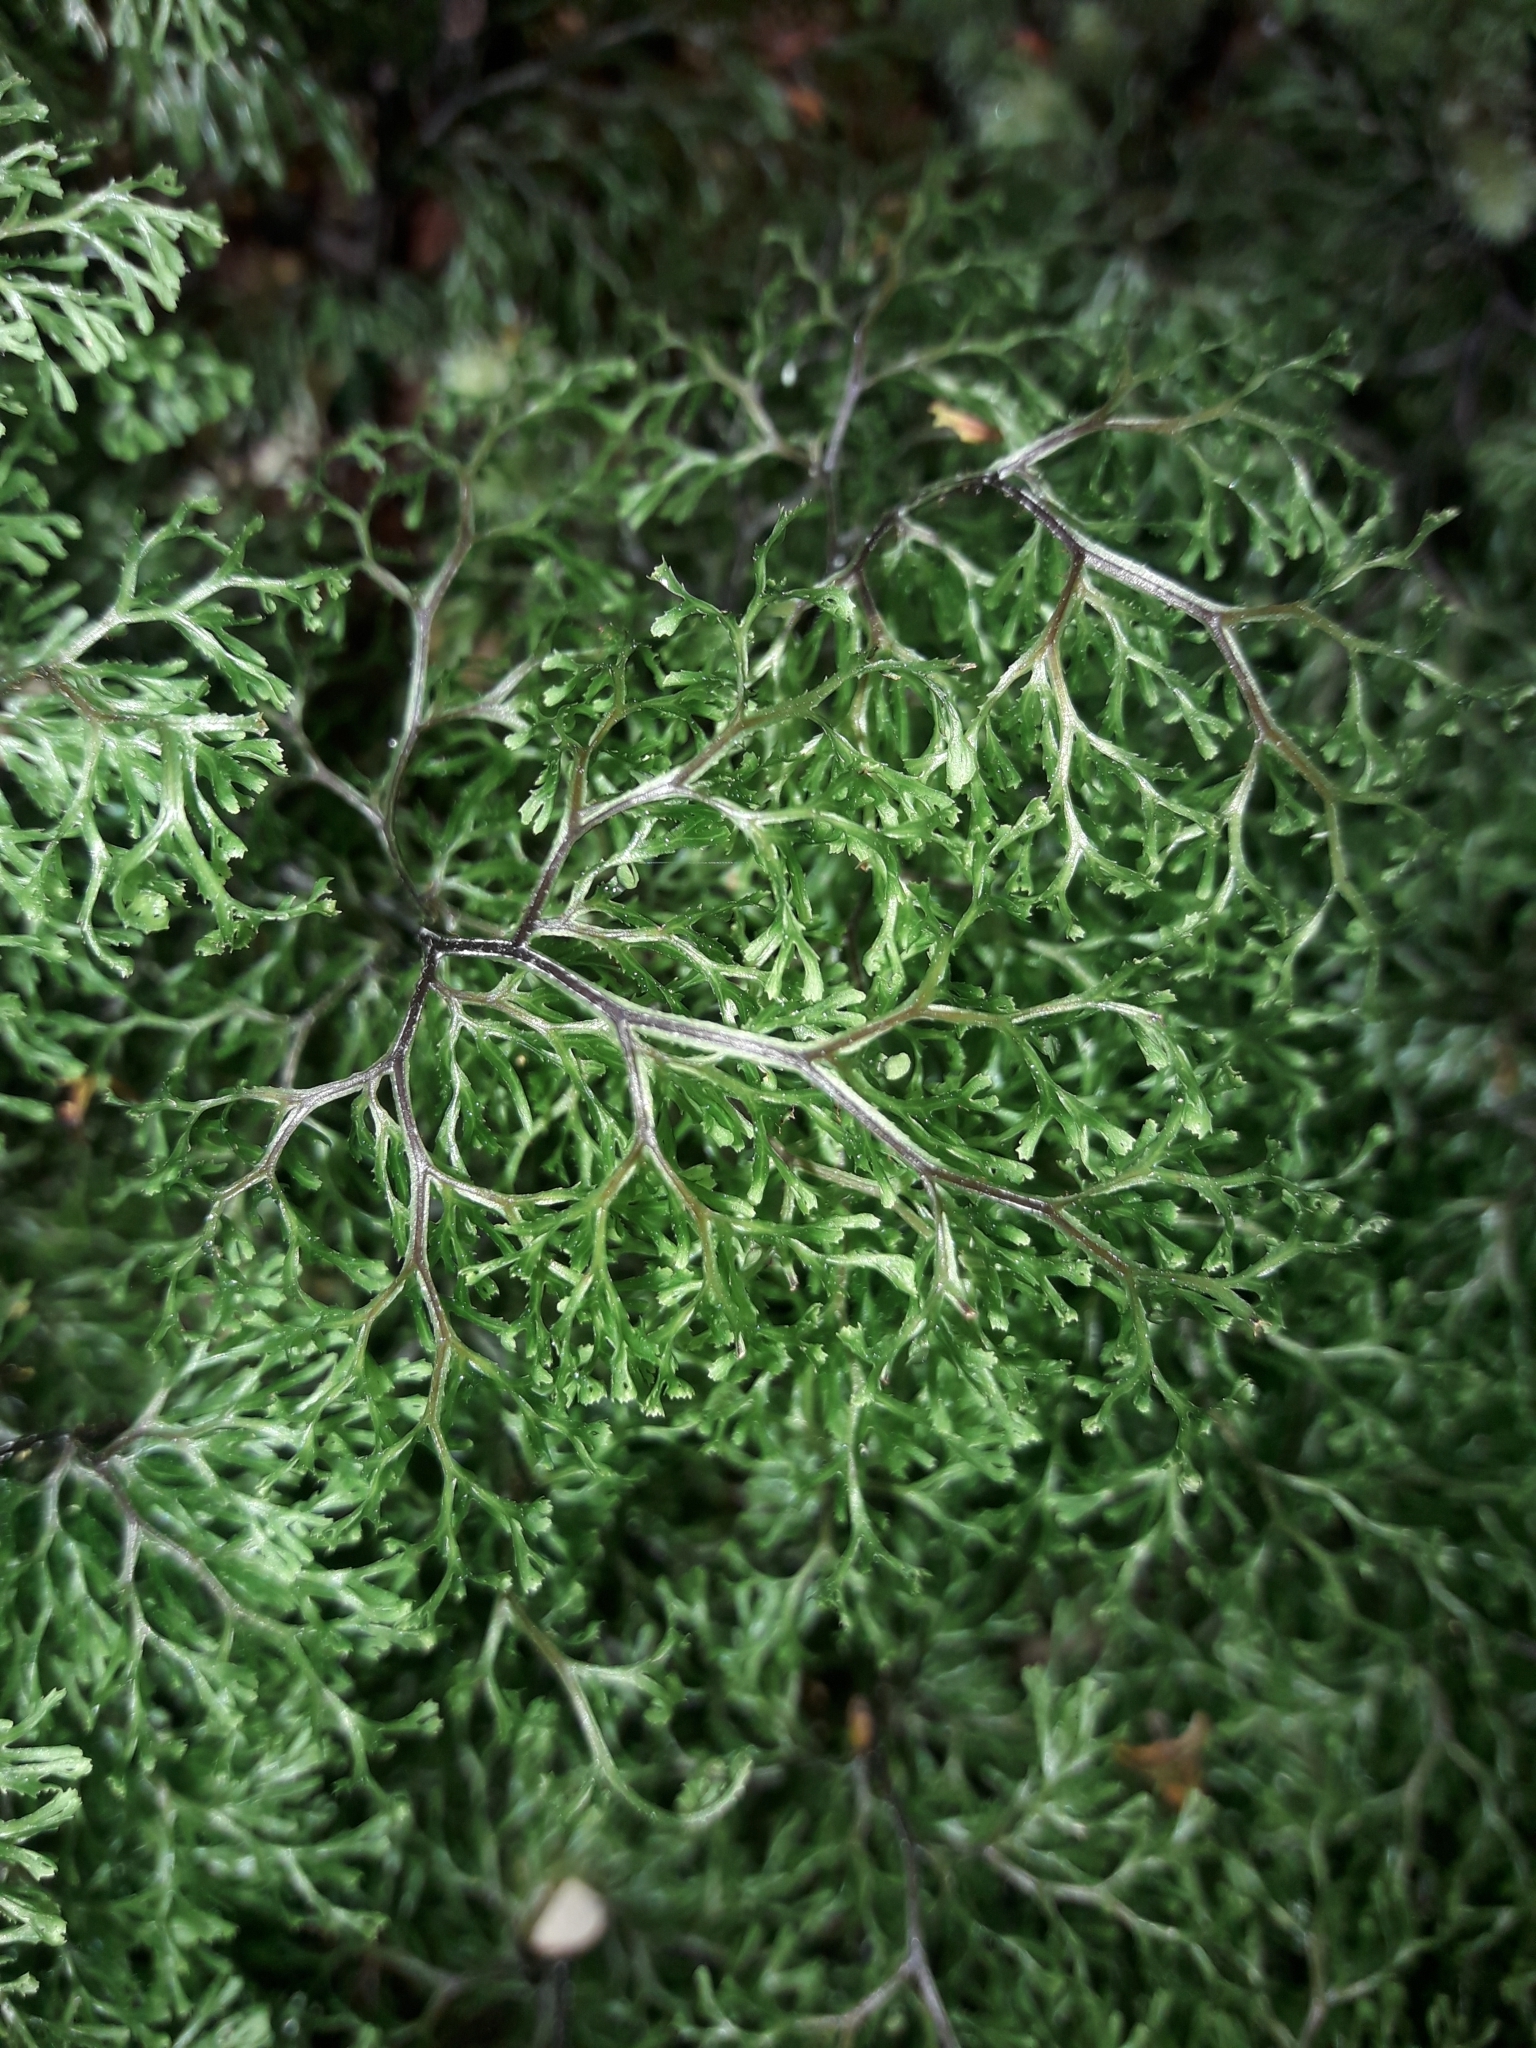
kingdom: Plantae
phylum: Tracheophyta
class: Polypodiopsida
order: Hymenophyllales
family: Hymenophyllaceae
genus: Hymenophyllum
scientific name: Hymenophyllum multifidum
